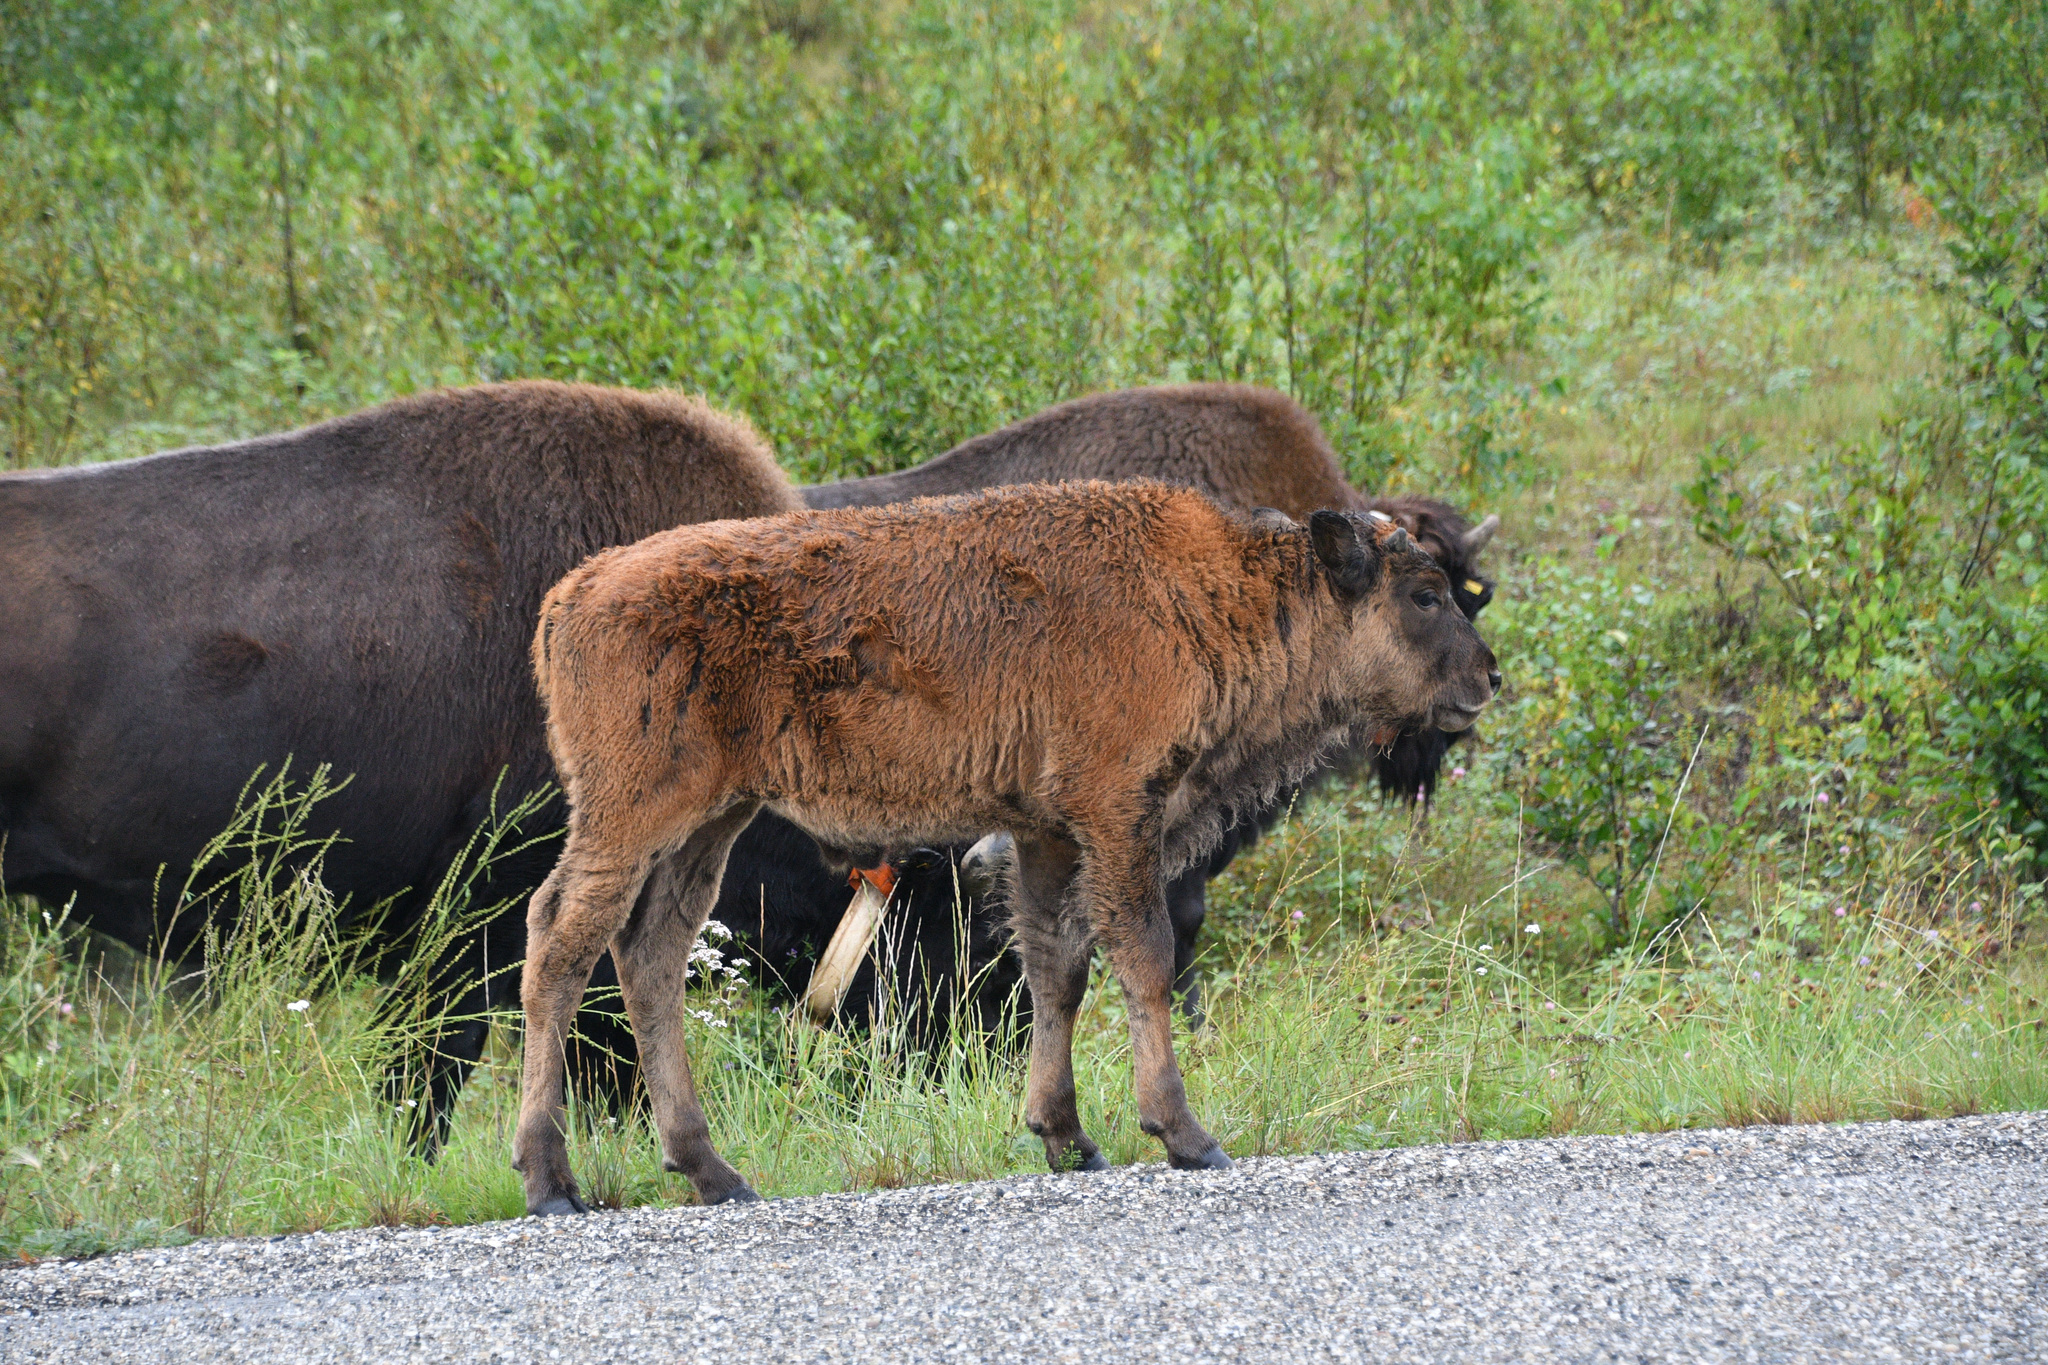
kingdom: Animalia
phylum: Chordata
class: Mammalia
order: Artiodactyla
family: Bovidae
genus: Bison
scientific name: Bison bison
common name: American bison
